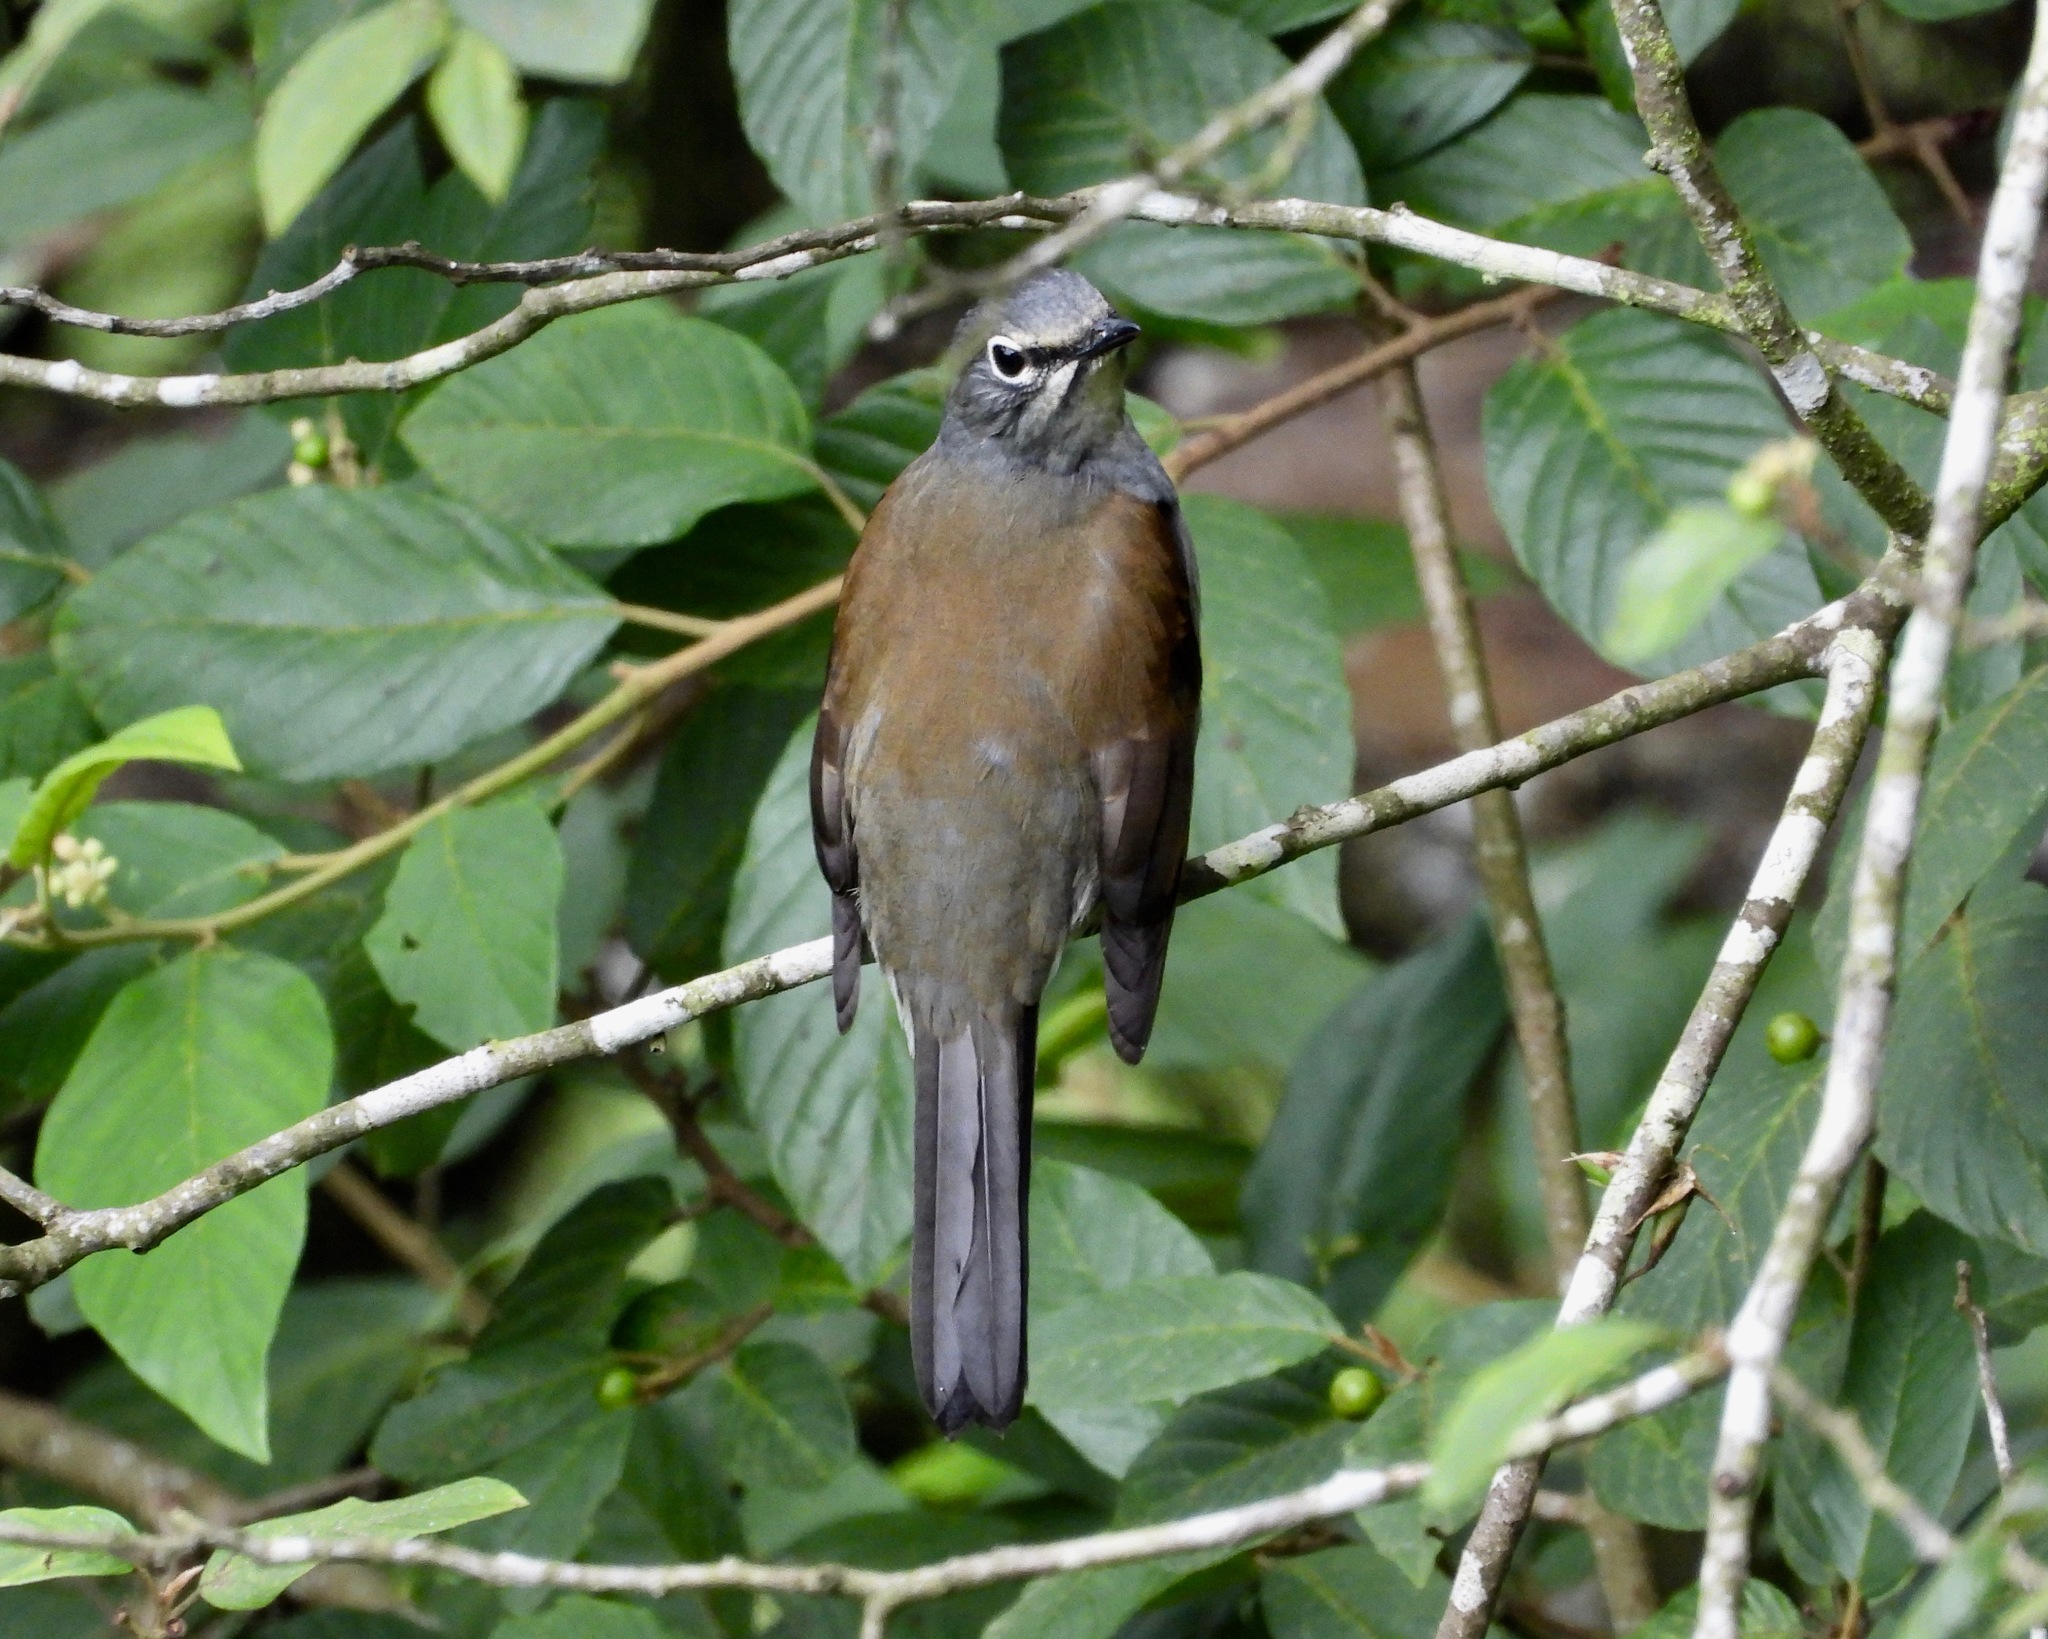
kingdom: Animalia
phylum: Chordata
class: Aves
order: Passeriformes
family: Turdidae
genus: Myadestes
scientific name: Myadestes occidentalis
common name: Brown-backed solitaire
